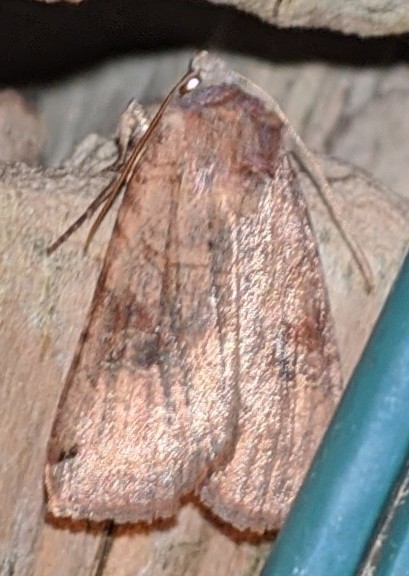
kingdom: Animalia
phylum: Arthropoda
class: Insecta
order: Lepidoptera
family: Noctuidae
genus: Xestia
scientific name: Xestia smithii
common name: Smith's dart
